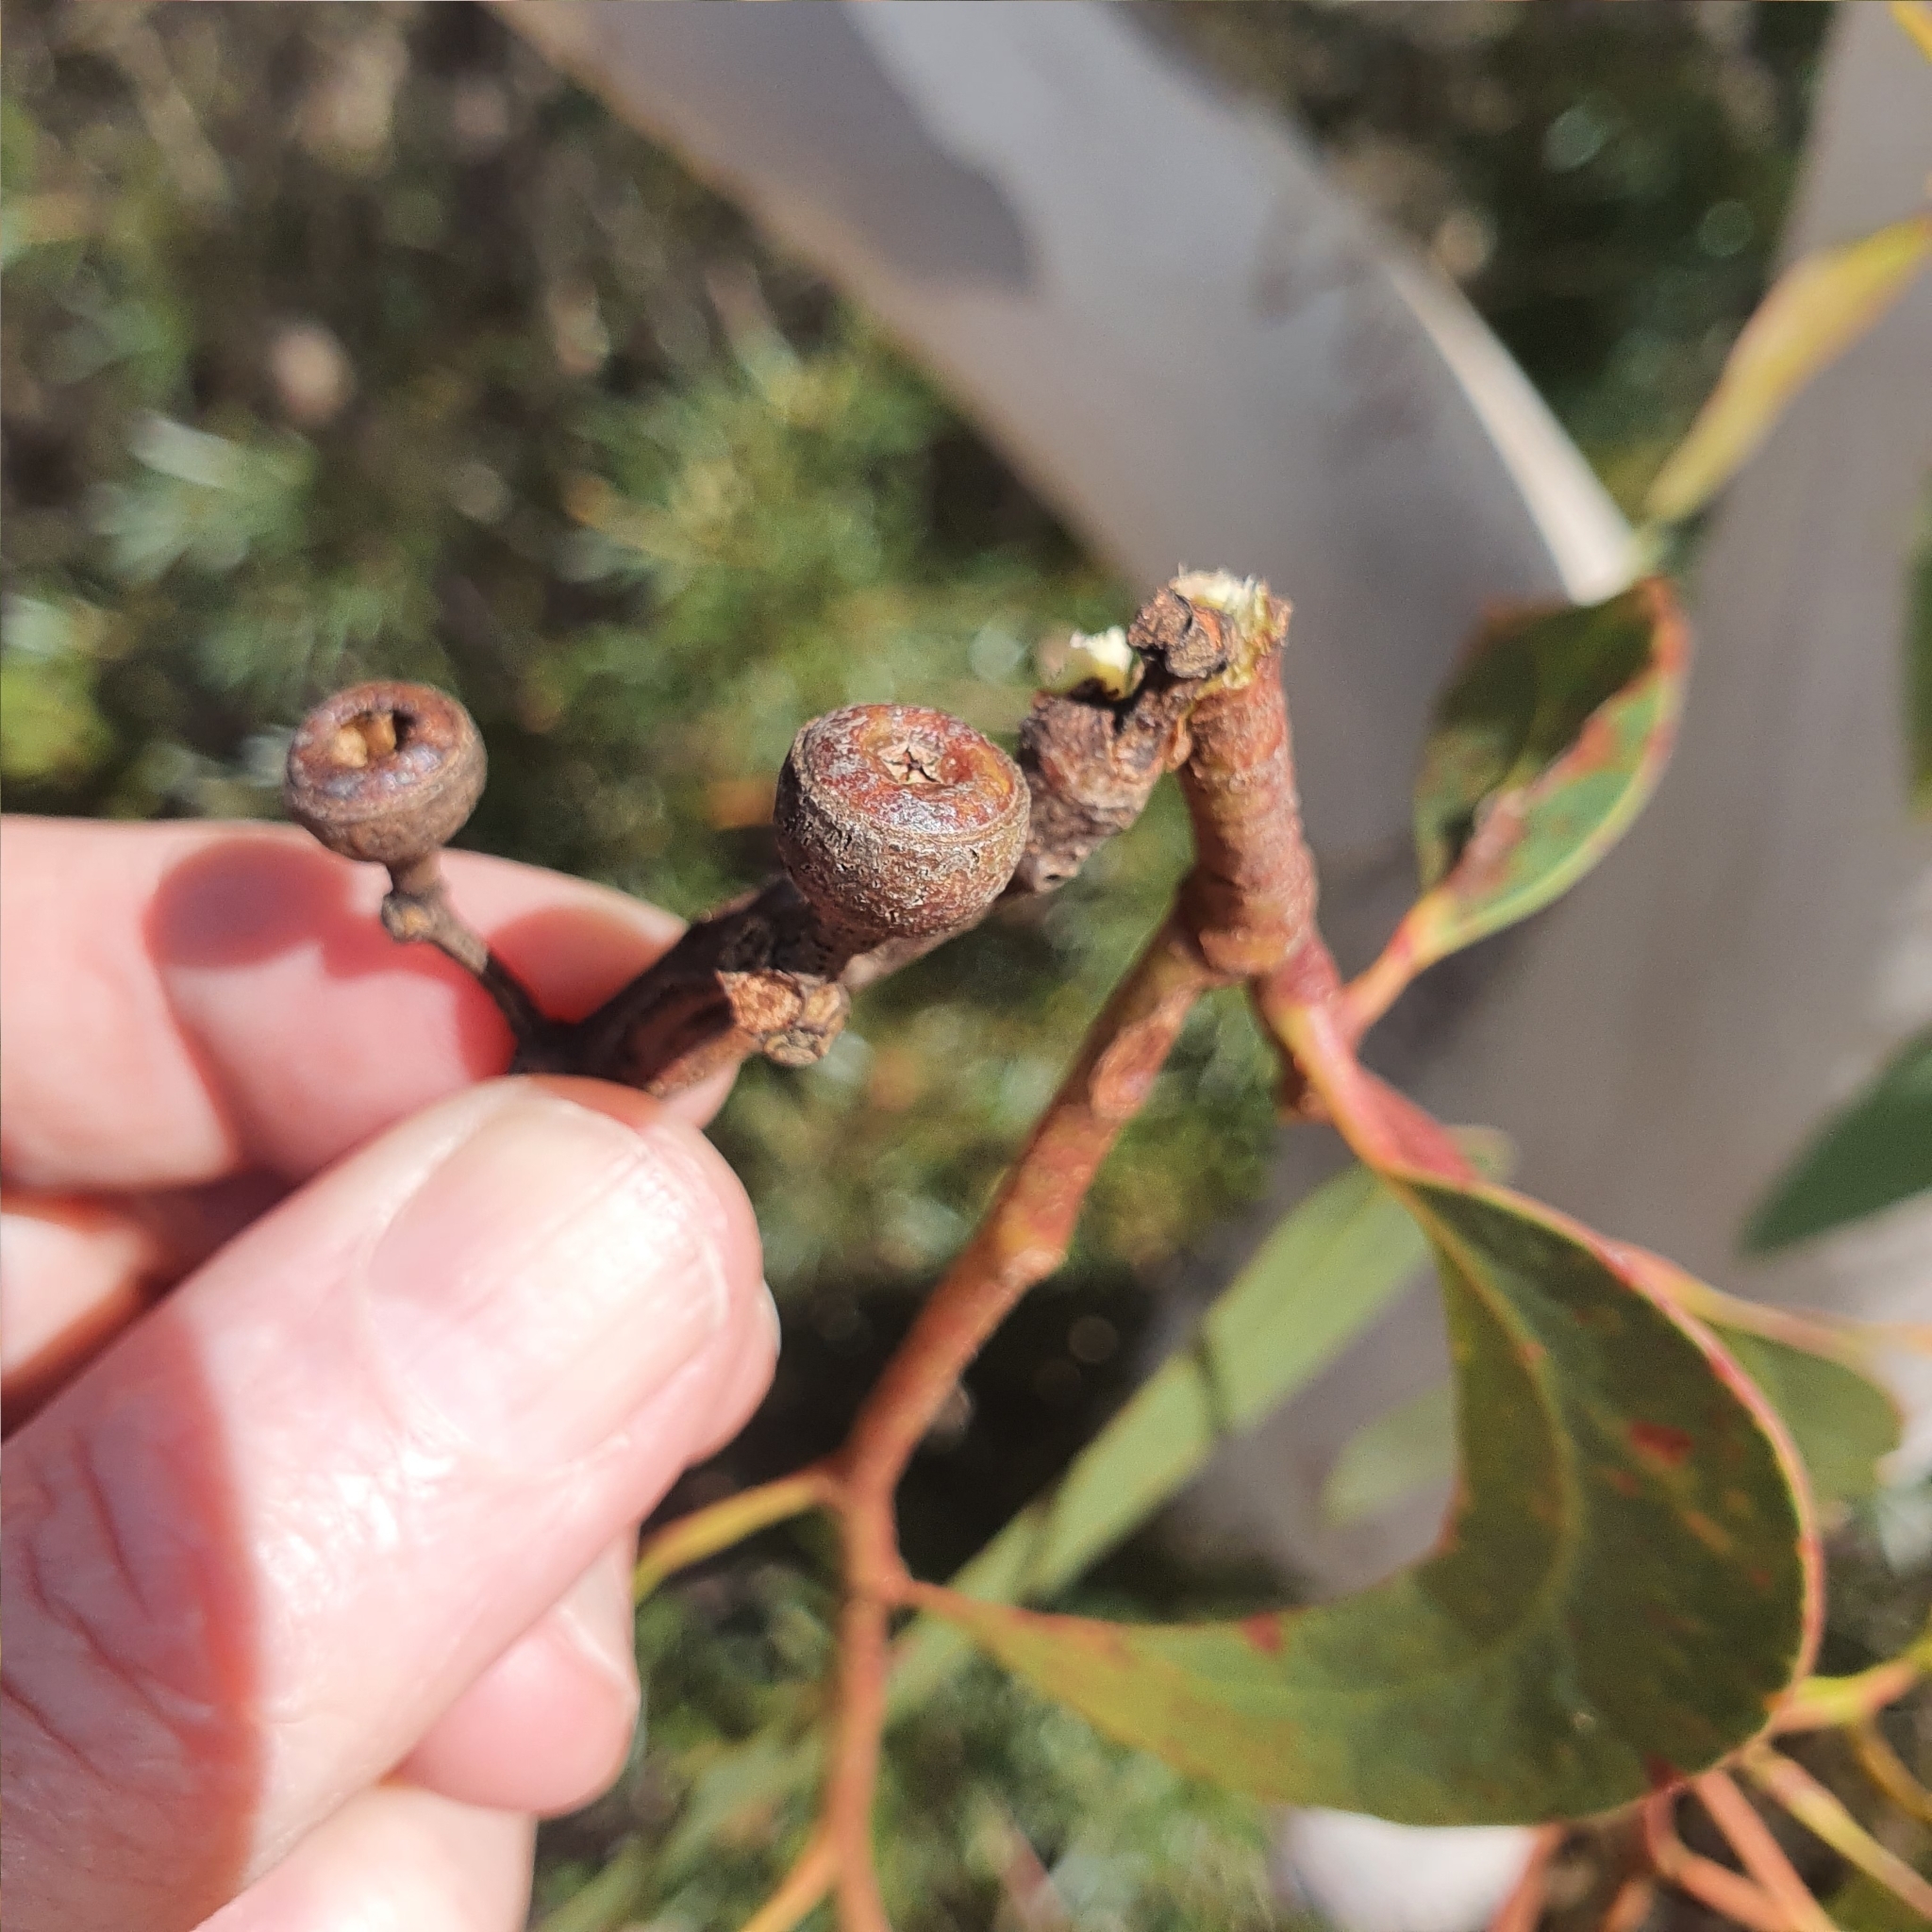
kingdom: Plantae
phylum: Tracheophyta
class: Magnoliopsida
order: Myrtales
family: Myrtaceae
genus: Eucalyptus
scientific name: Eucalyptus haemastoma
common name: Scribbly-gum
